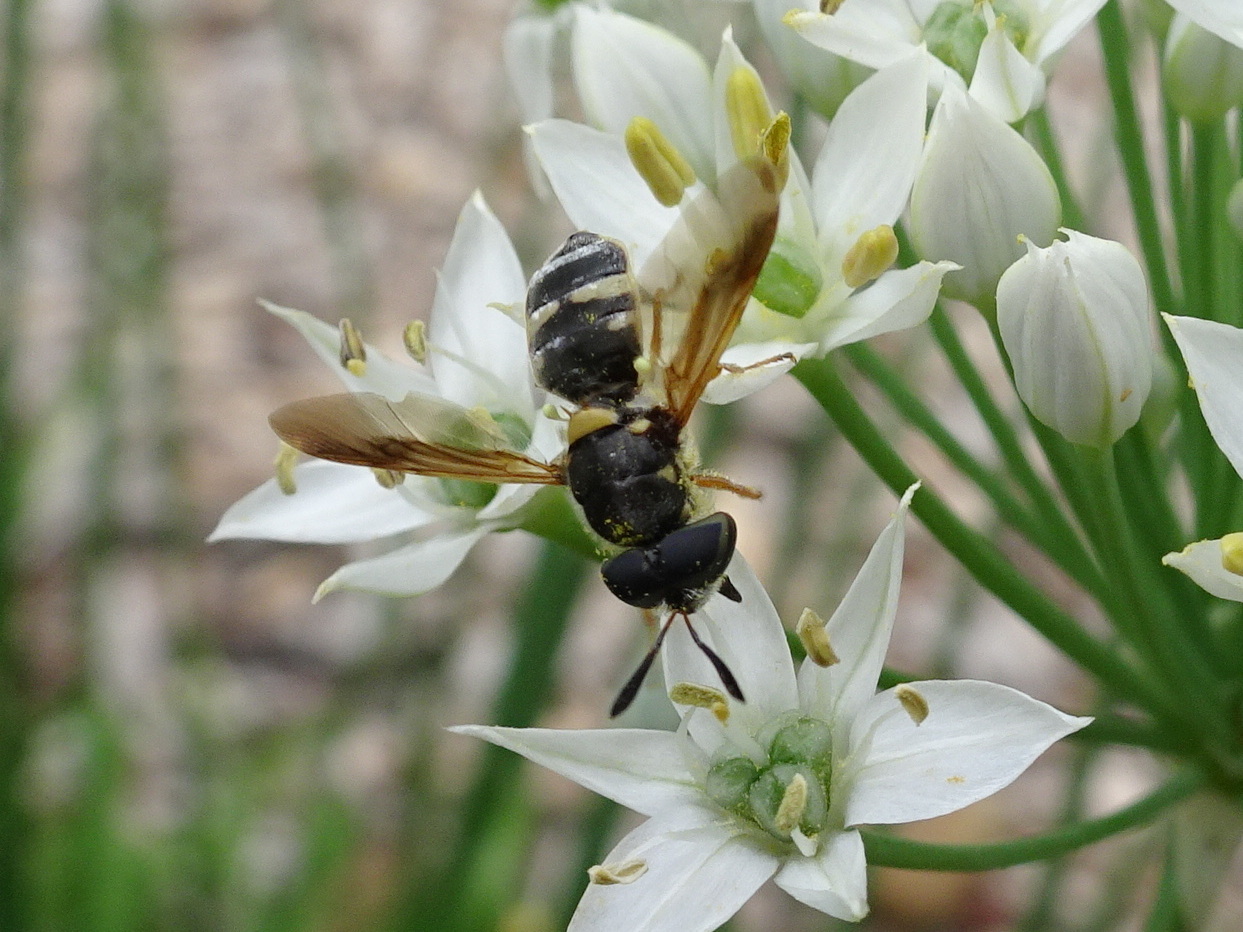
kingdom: Animalia
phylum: Arthropoda
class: Insecta
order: Diptera
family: Stratiomyidae
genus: Hoplitimyia
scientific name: Hoplitimyia constans
